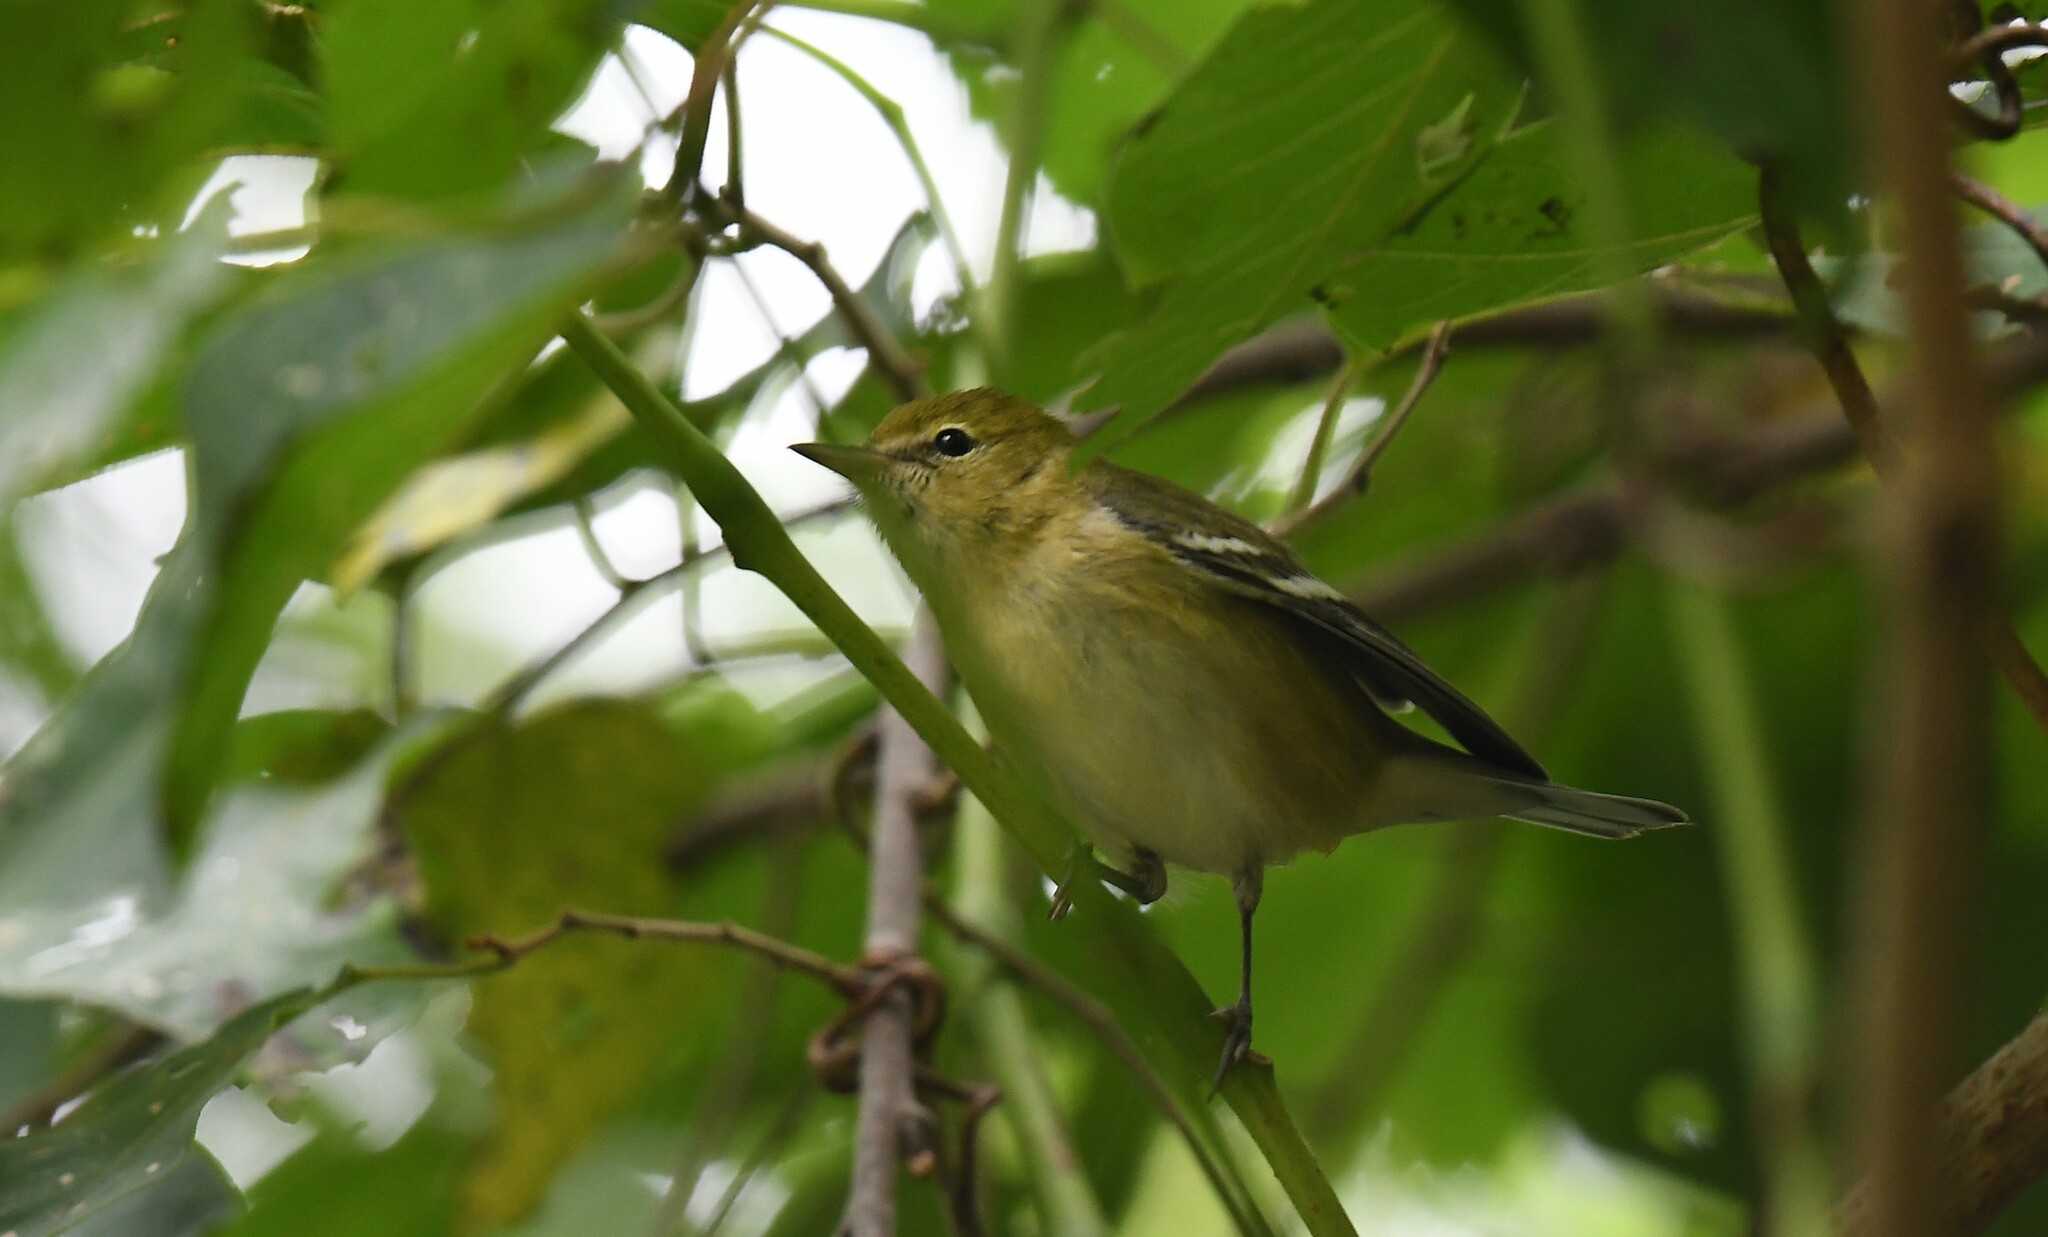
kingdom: Animalia
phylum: Chordata
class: Aves
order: Passeriformes
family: Parulidae
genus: Setophaga
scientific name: Setophaga castanea
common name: Bay-breasted warbler
